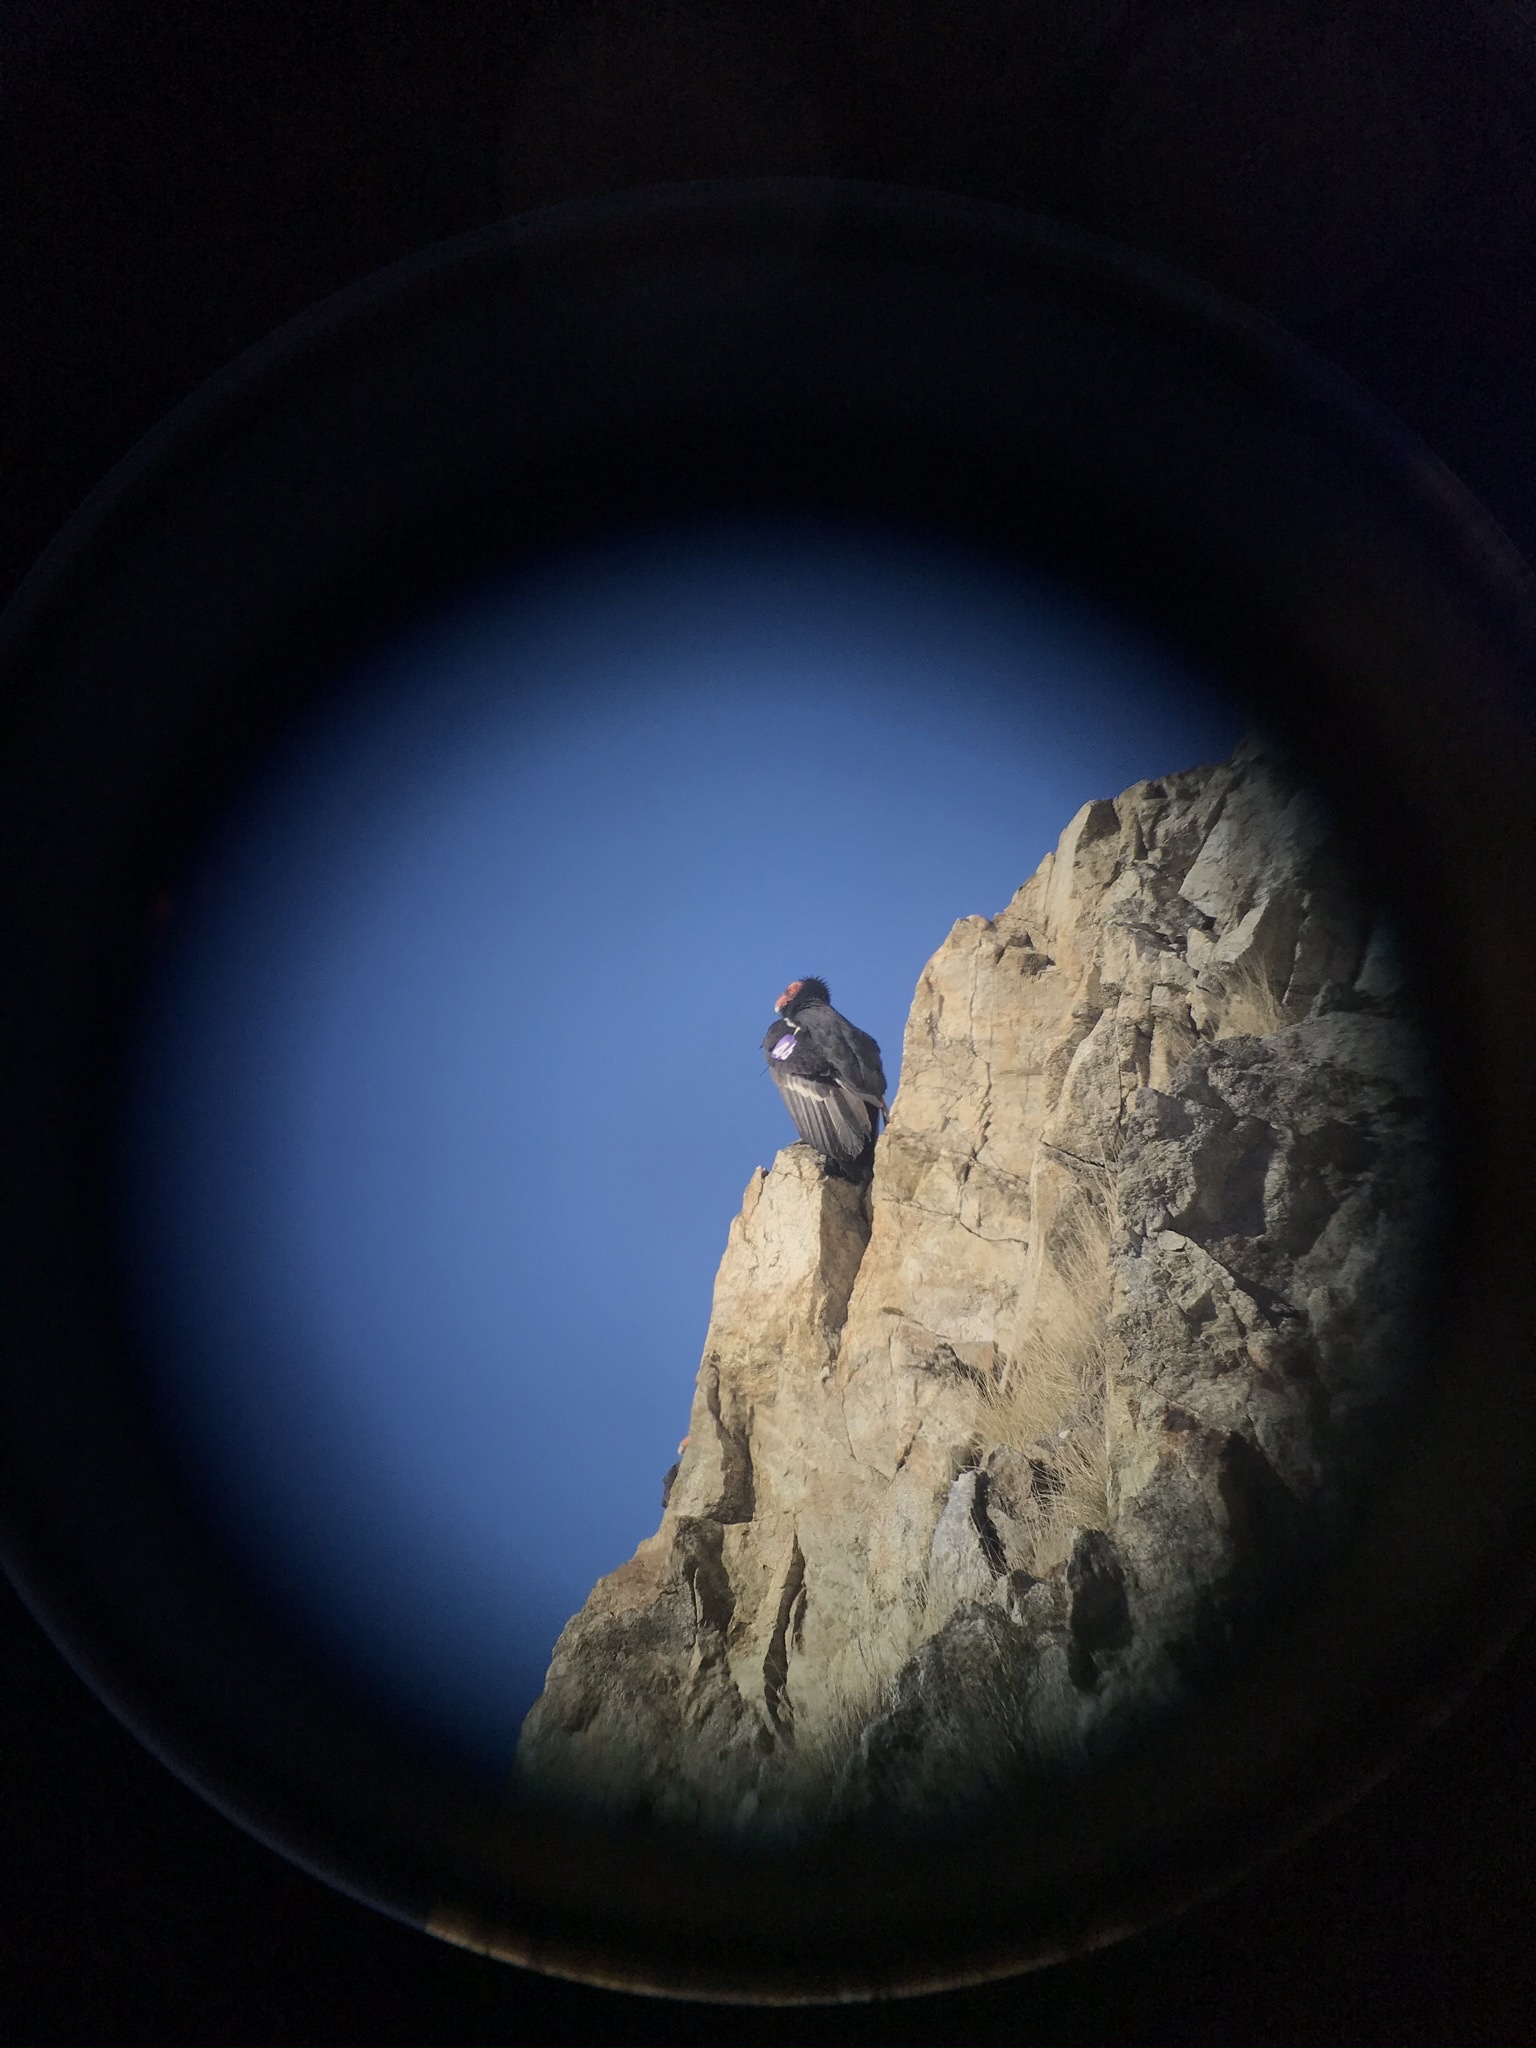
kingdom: Animalia
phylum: Chordata
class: Aves
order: Accipitriformes
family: Cathartidae
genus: Gymnogyps
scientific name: Gymnogyps californianus
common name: California condor
